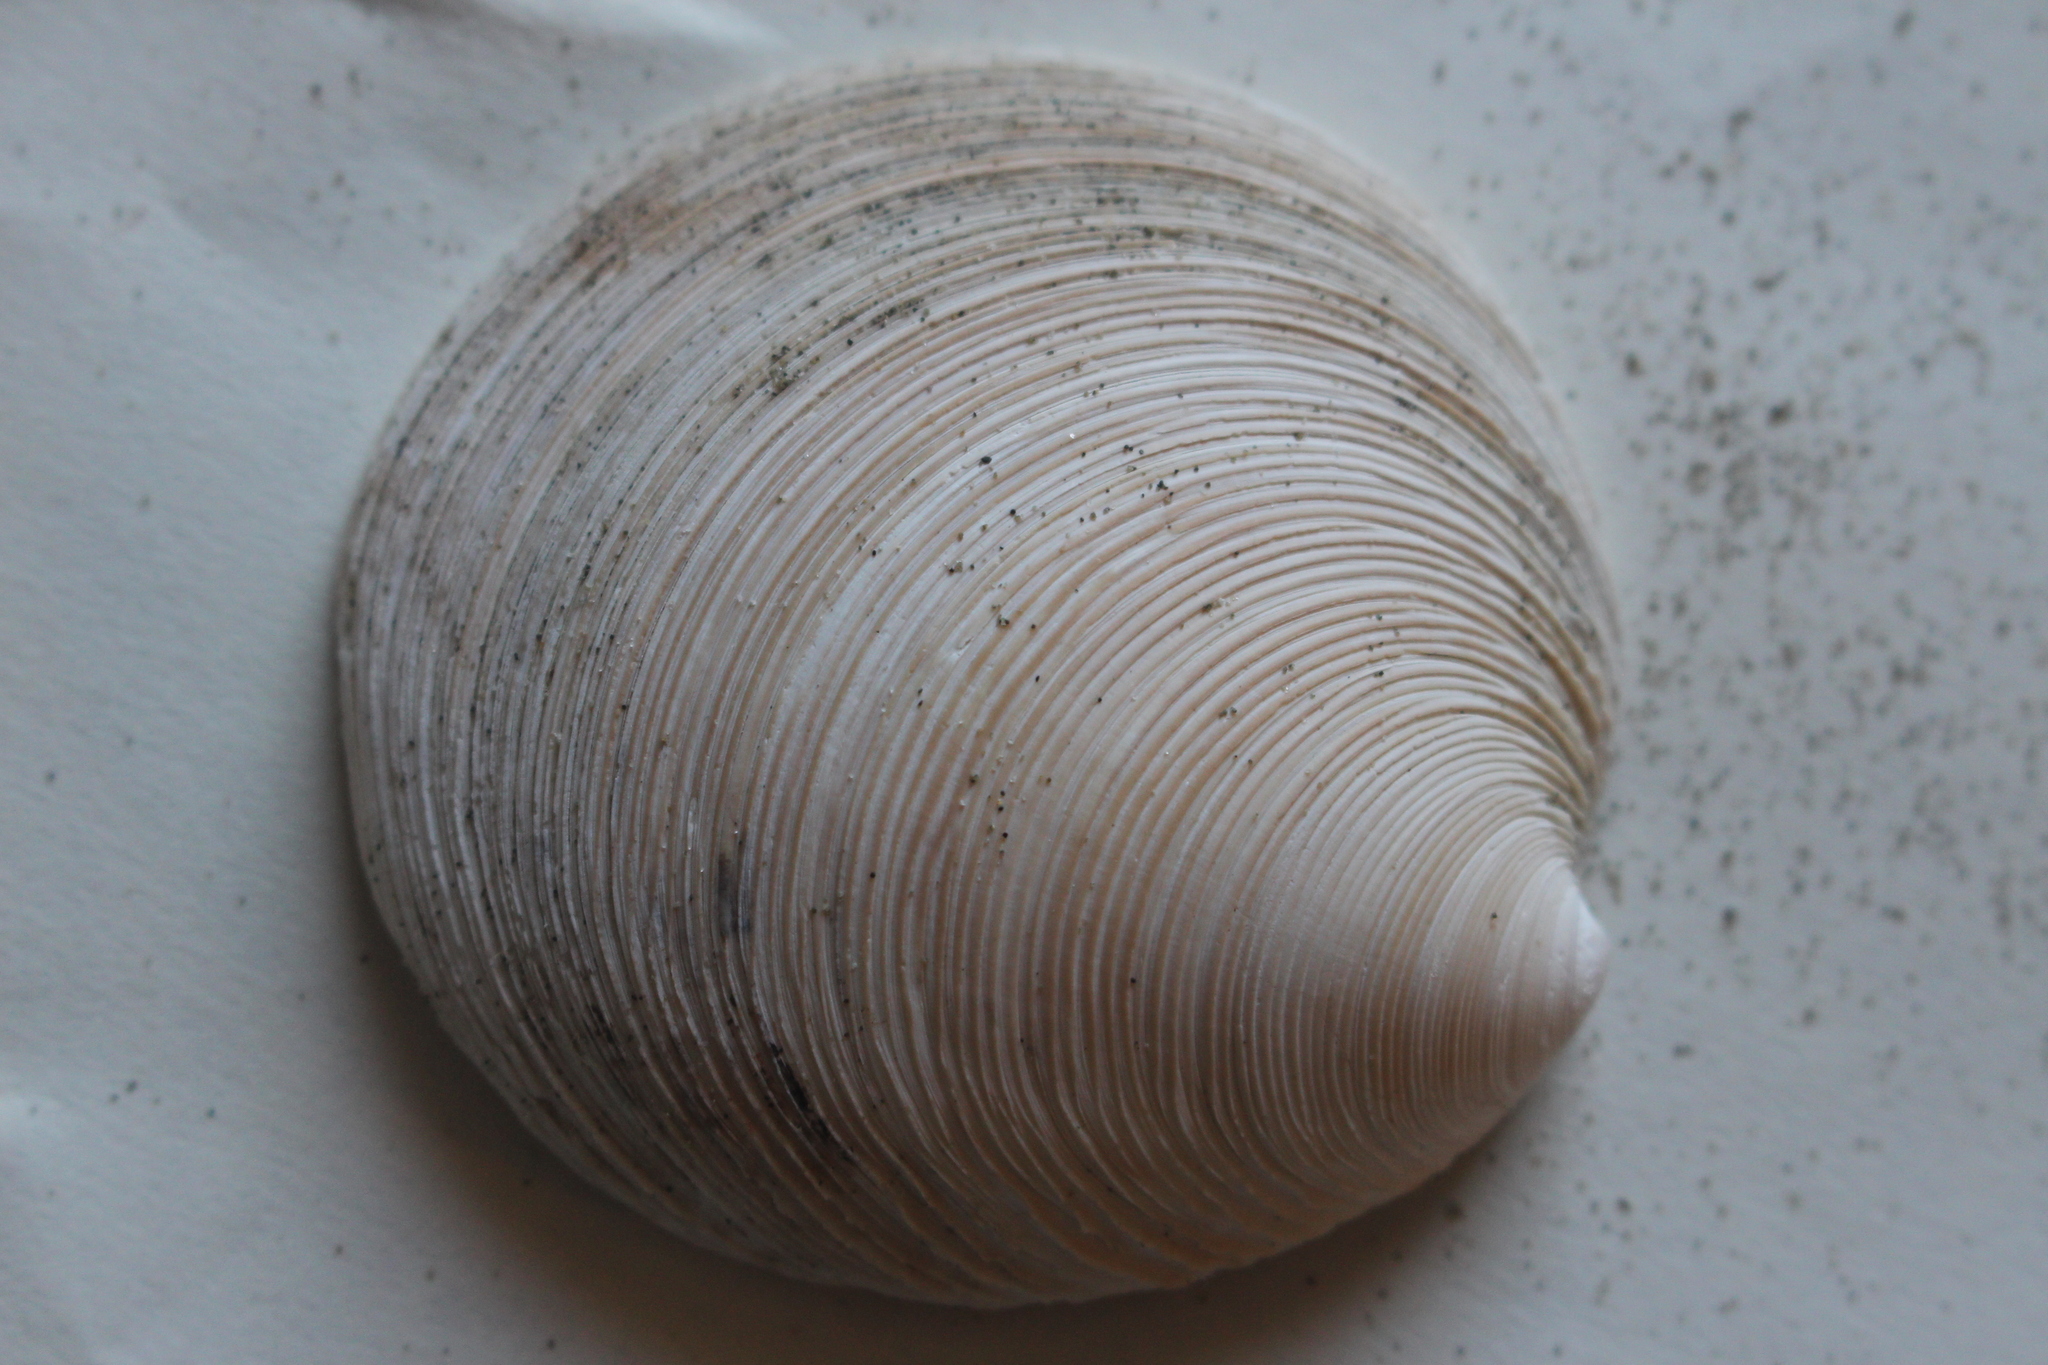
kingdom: Animalia
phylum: Mollusca
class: Bivalvia
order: Venerida
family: Veneridae
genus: Dosinia
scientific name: Dosinia anus
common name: Old-woman dosinia
